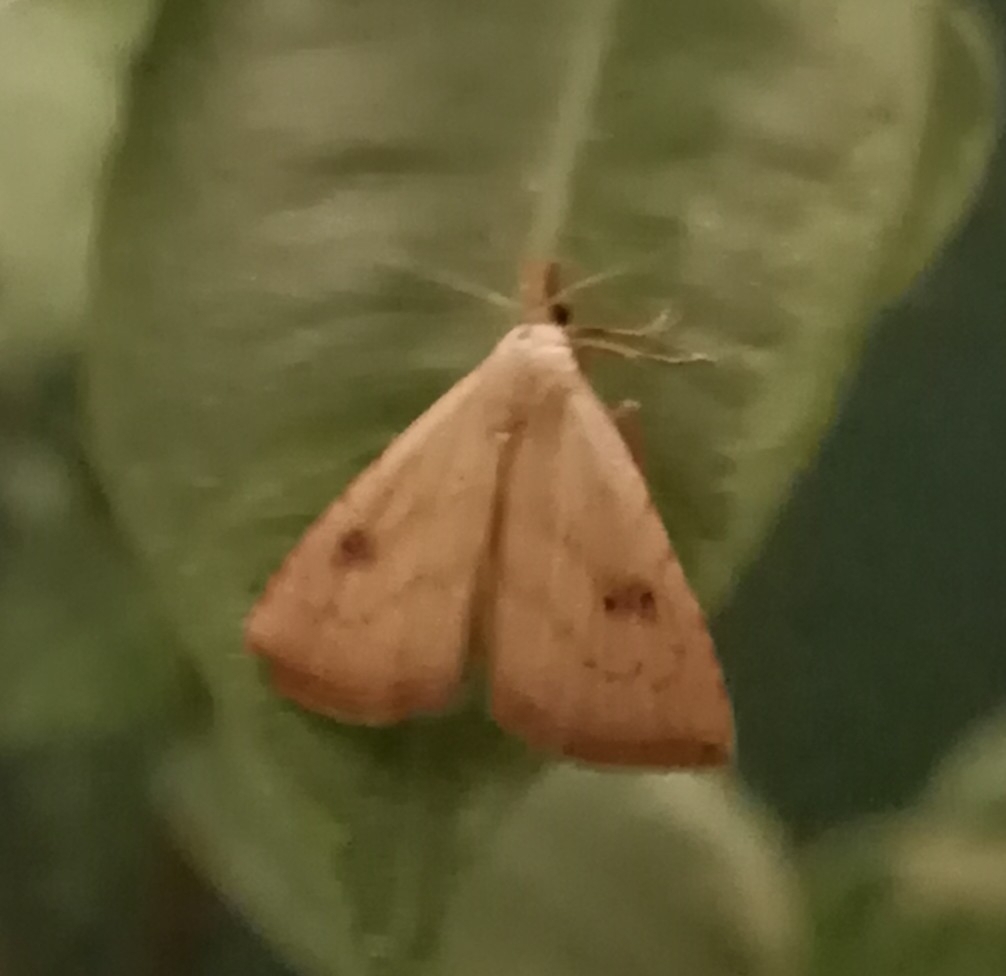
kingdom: Animalia
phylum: Arthropoda
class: Insecta
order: Lepidoptera
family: Erebidae
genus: Rivula
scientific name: Rivula sericealis
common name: Straw dot
